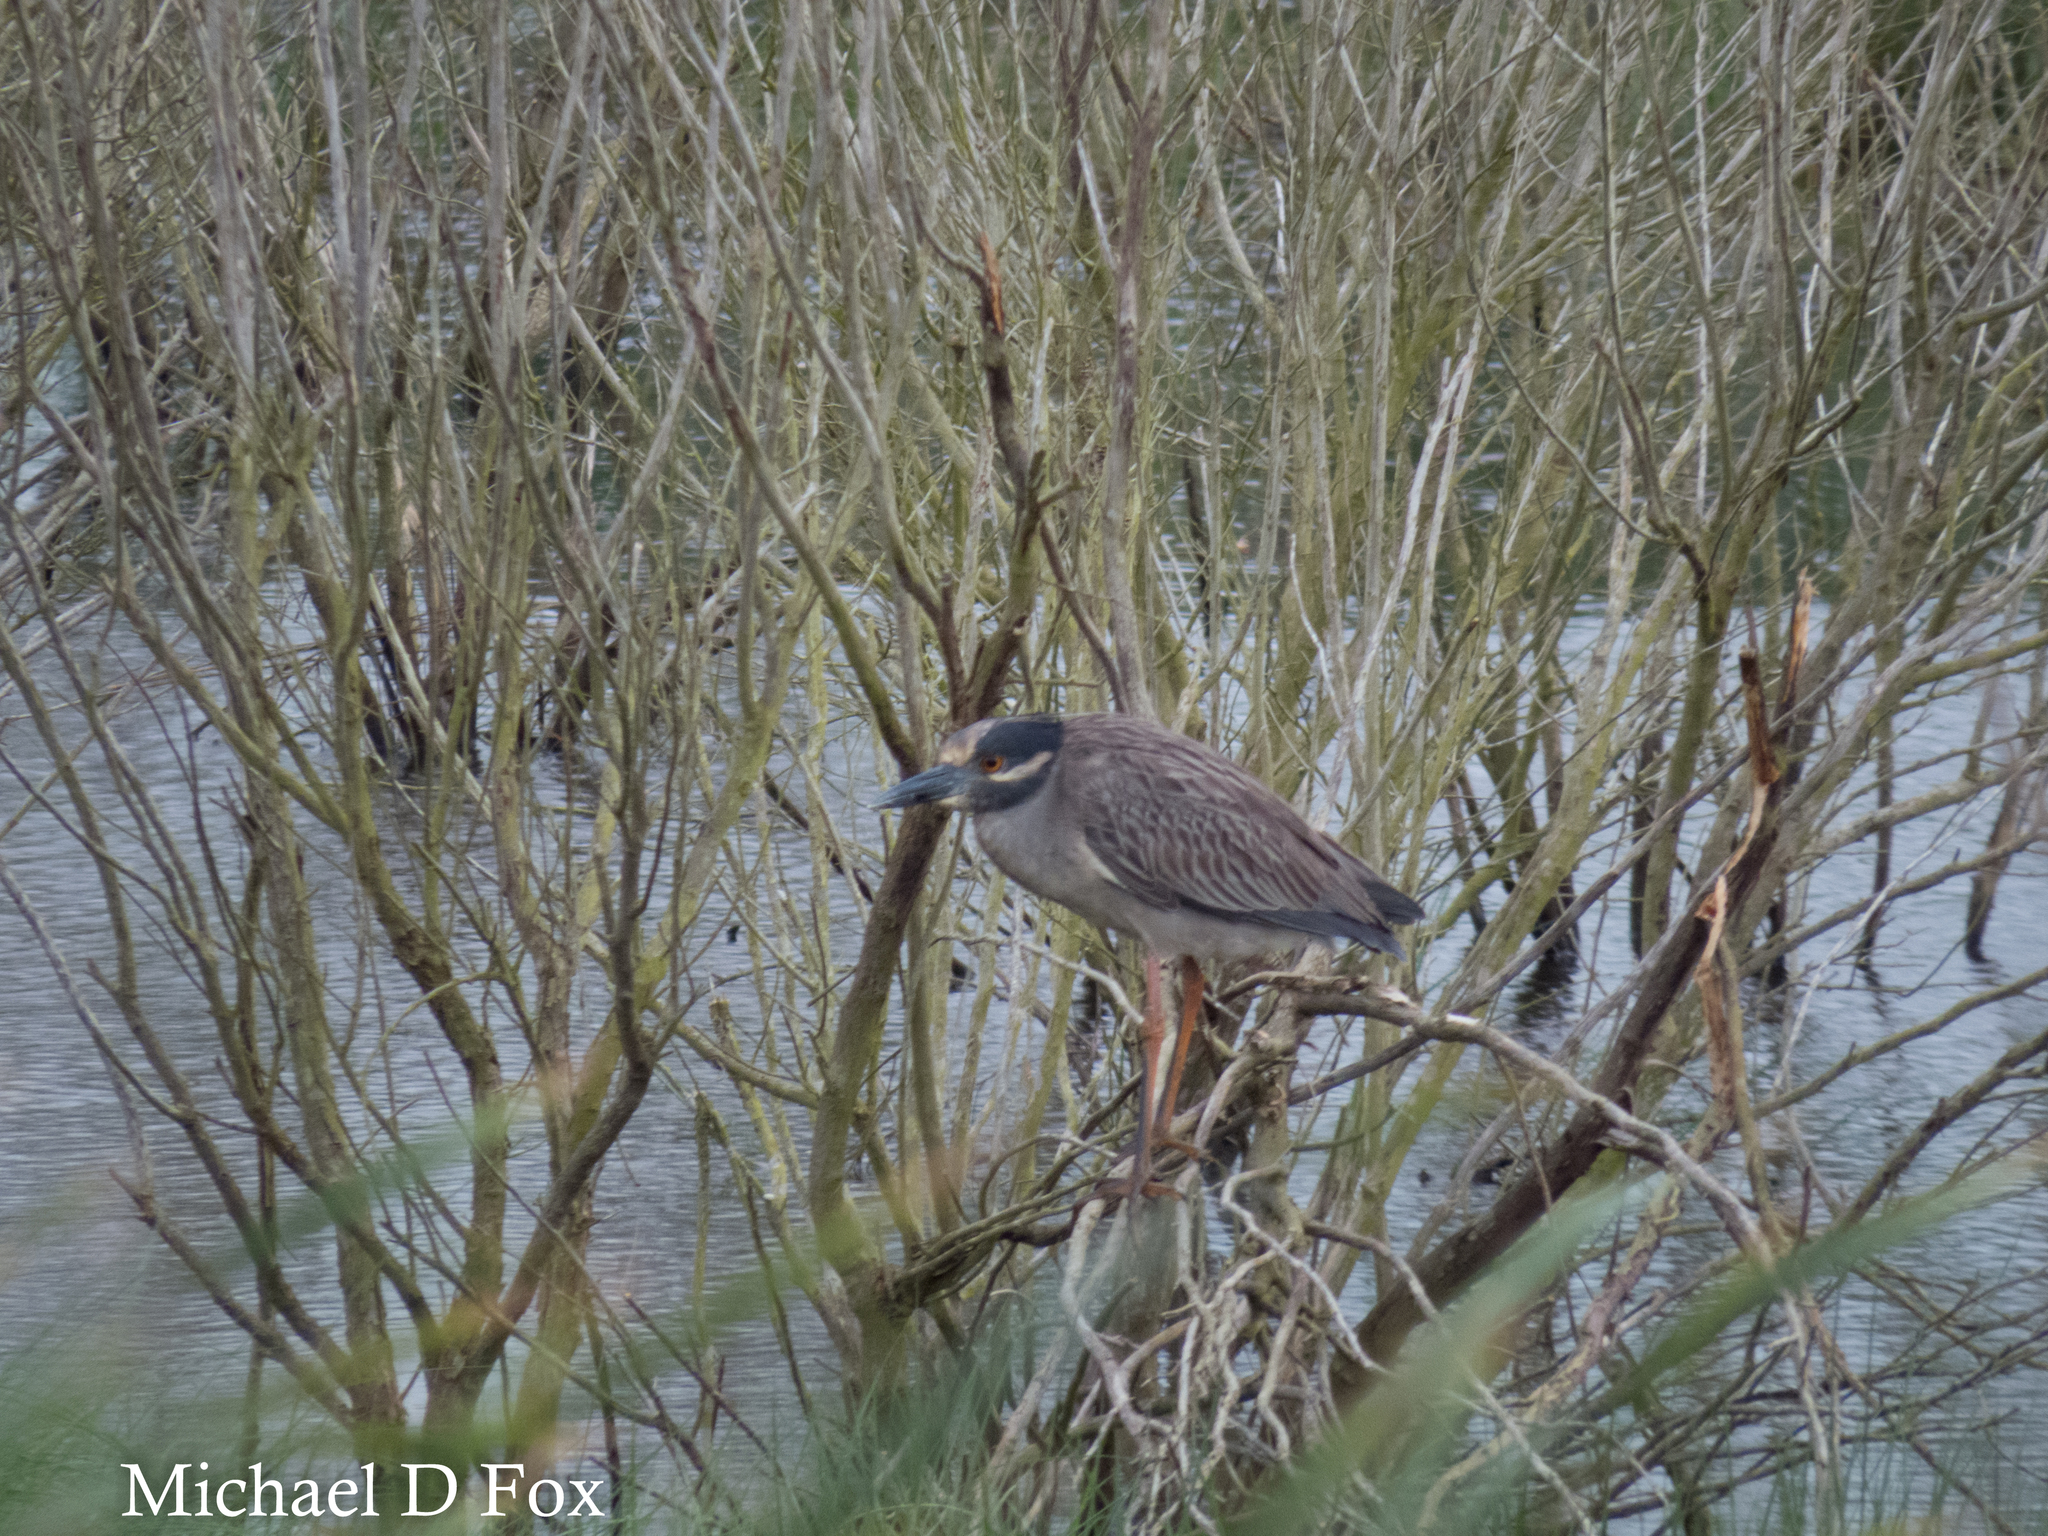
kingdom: Animalia
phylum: Chordata
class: Aves
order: Pelecaniformes
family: Ardeidae
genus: Nyctanassa
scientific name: Nyctanassa violacea
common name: Yellow-crowned night heron
